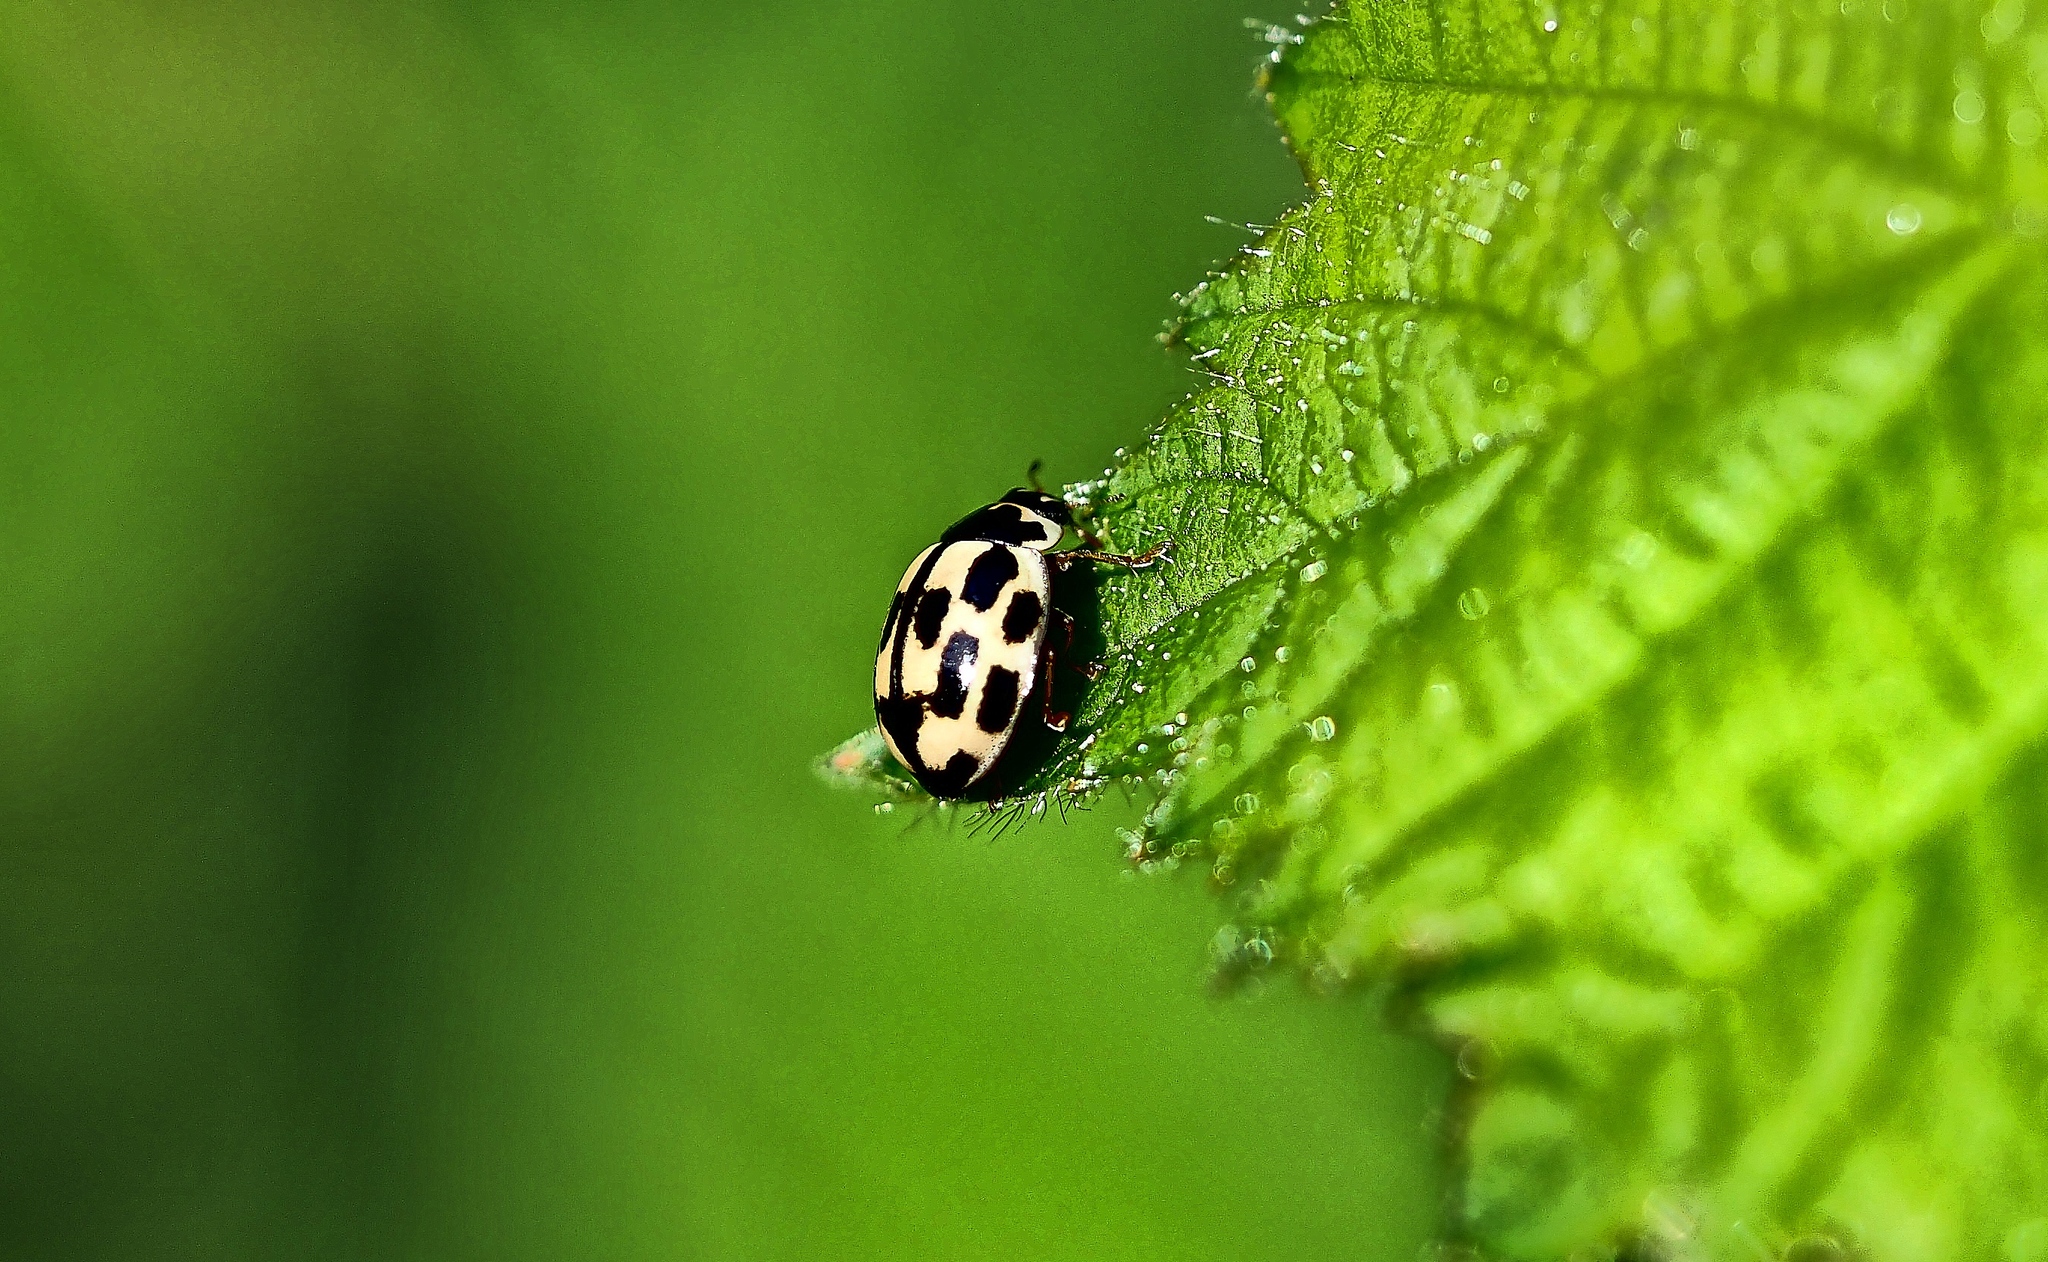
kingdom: Animalia
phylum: Arthropoda
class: Insecta
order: Coleoptera
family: Coccinellidae
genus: Propylaea
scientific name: Propylaea quatuordecimpunctata
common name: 14-spotted ladybird beetle
